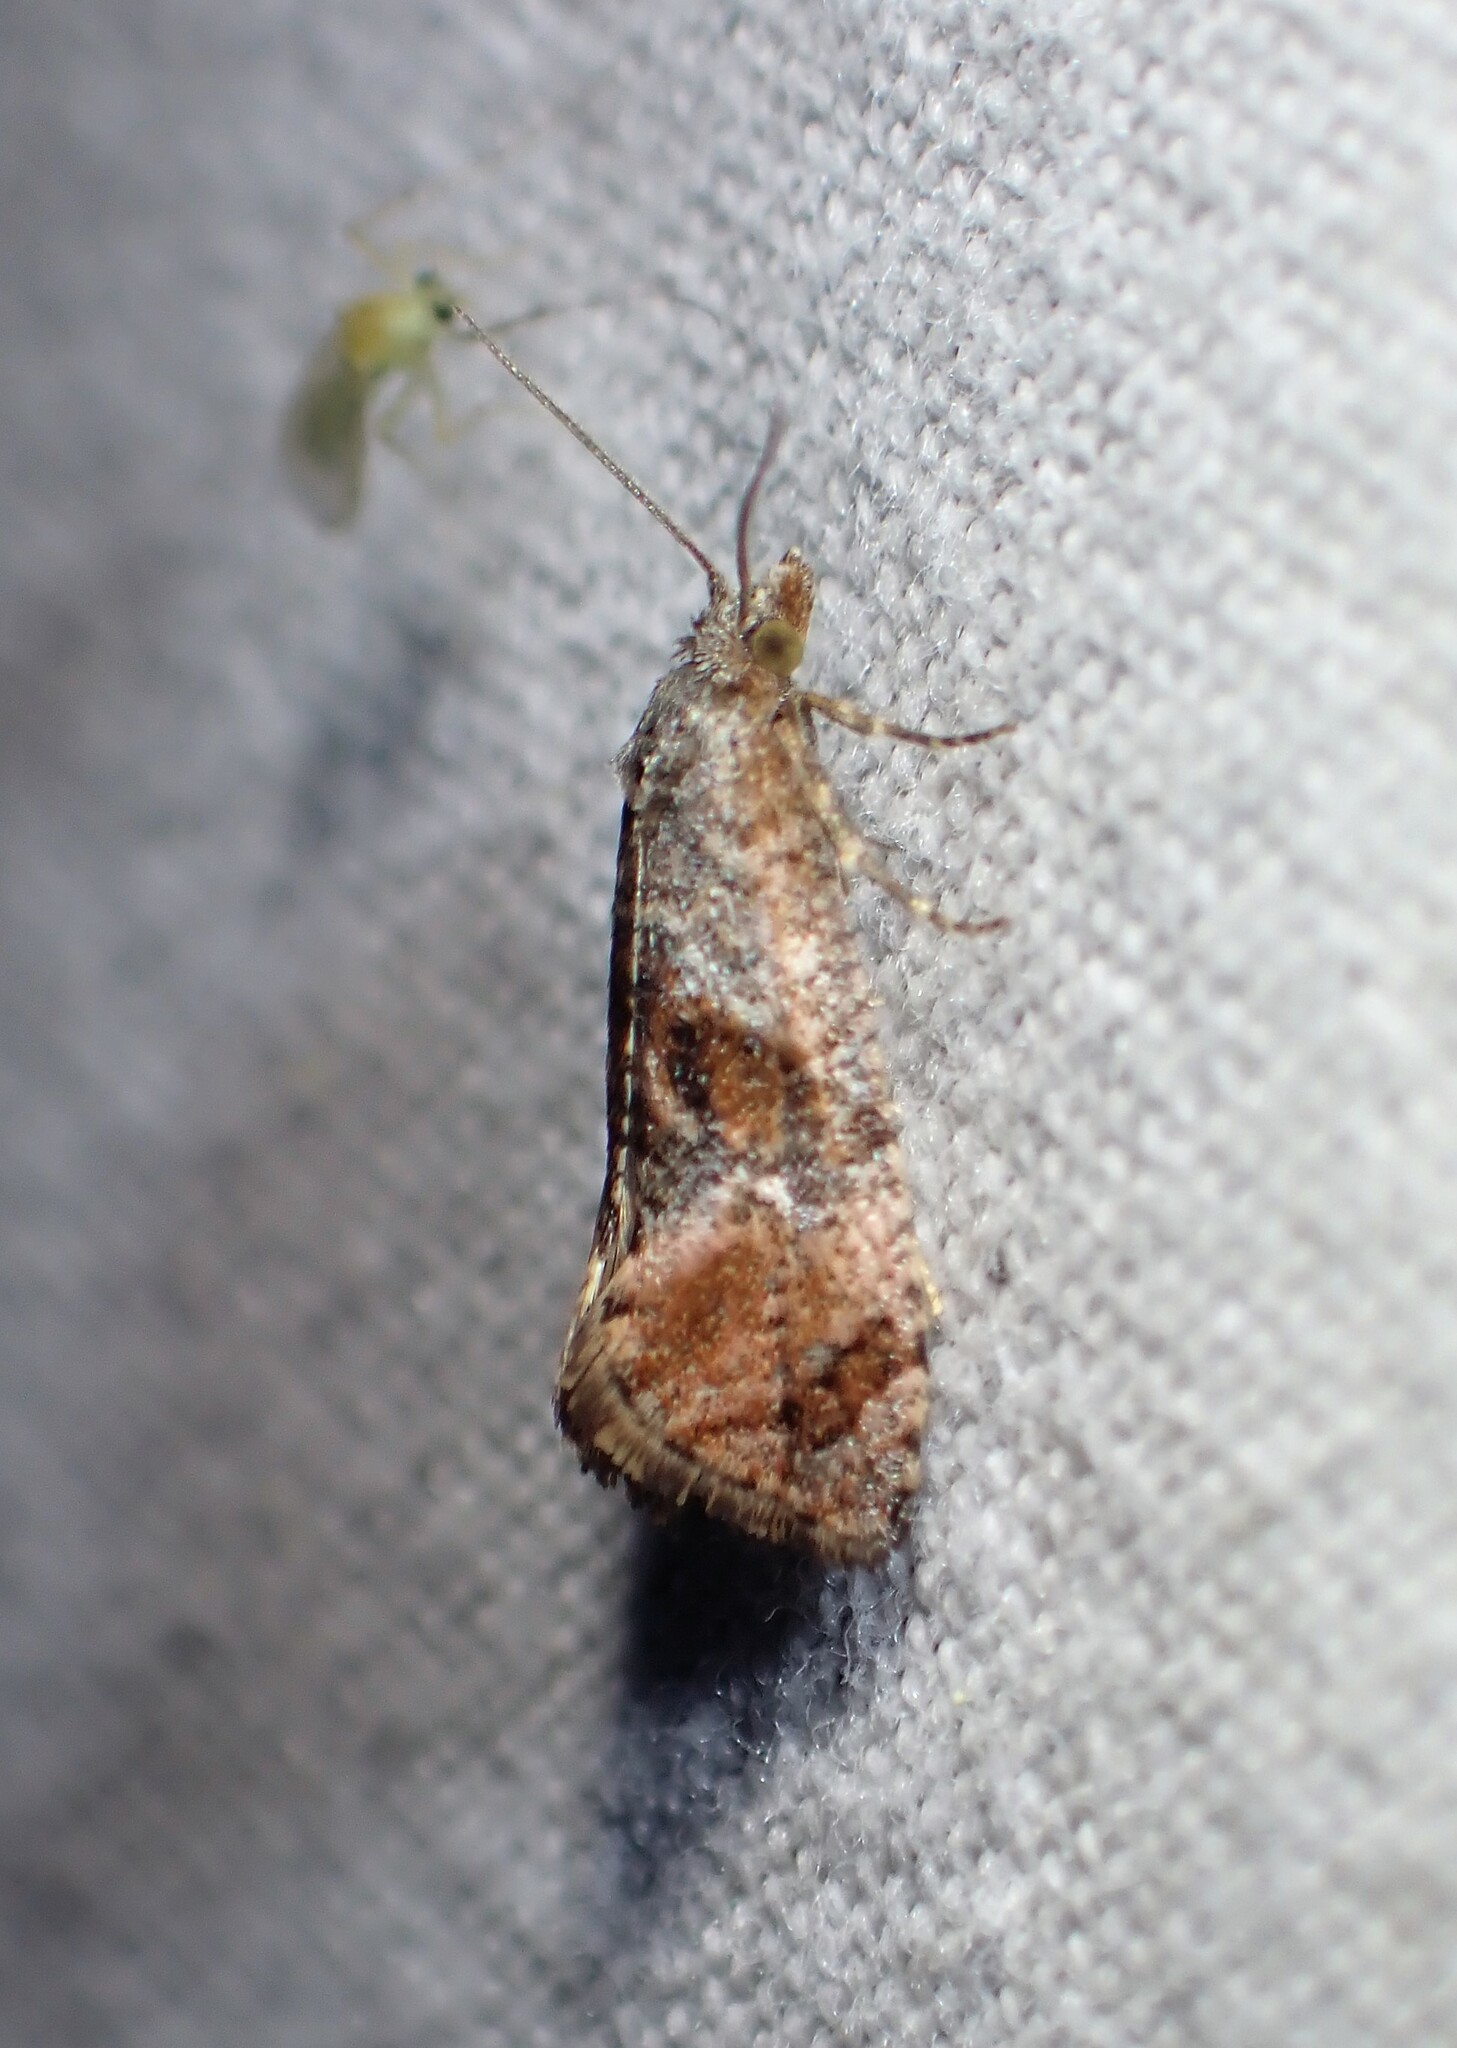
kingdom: Animalia
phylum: Arthropoda
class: Insecta
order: Lepidoptera
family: Tortricidae
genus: Cochylis
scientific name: Cochylis Cochylichroa temerana
